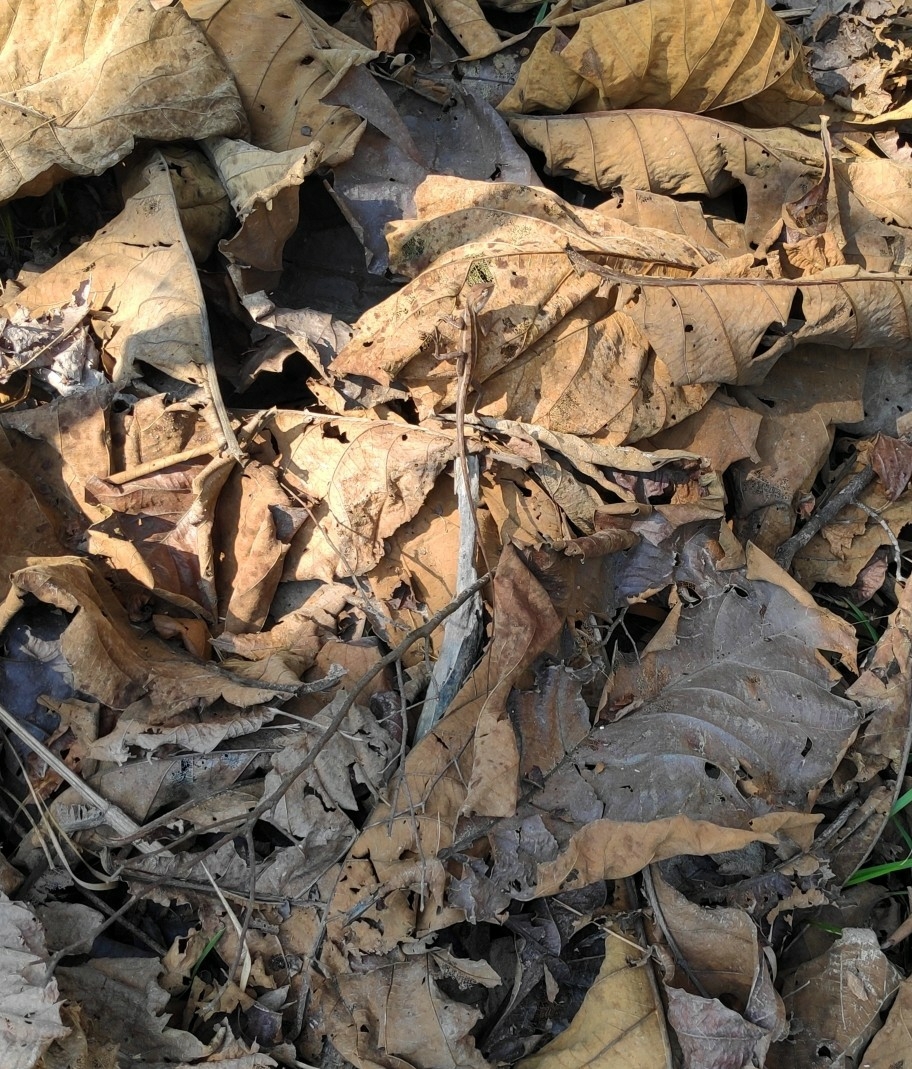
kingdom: Animalia
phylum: Chordata
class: Squamata
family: Agamidae
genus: Calotes
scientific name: Calotes versicolor
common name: Oriental garden lizard
